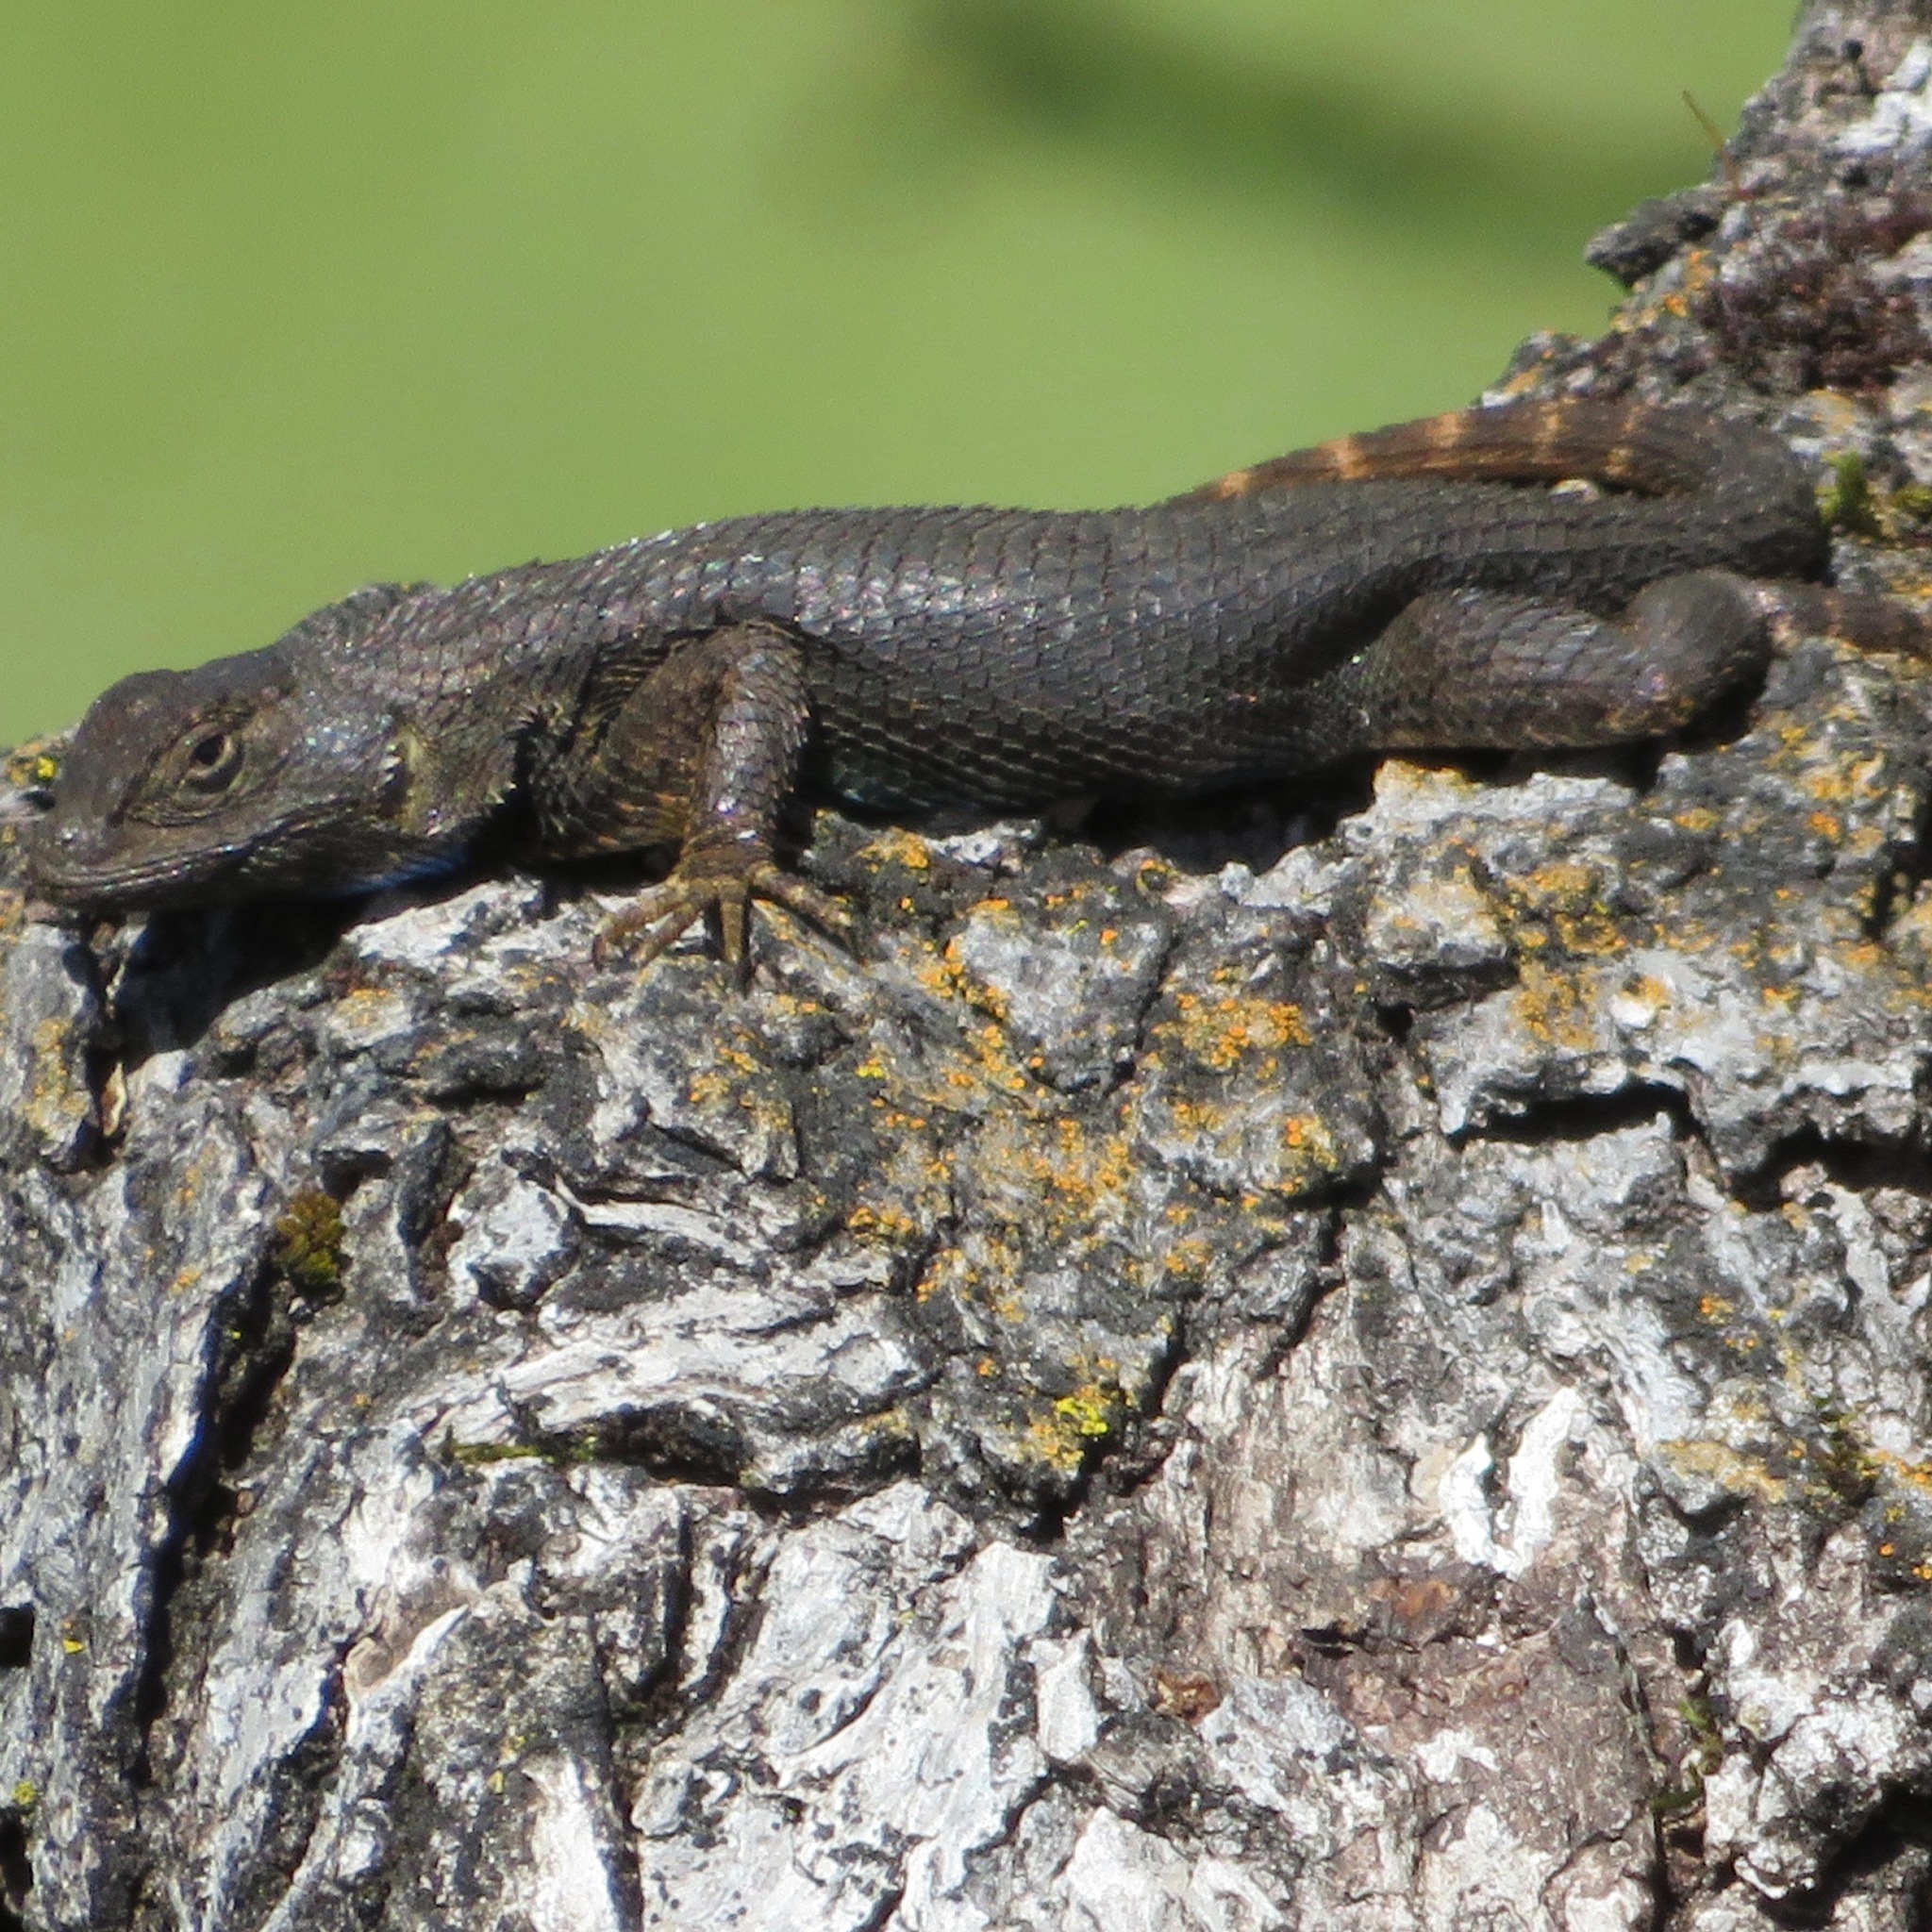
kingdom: Animalia
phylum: Chordata
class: Squamata
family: Phrynosomatidae
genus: Sceloporus
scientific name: Sceloporus occidentalis
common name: Western fence lizard
